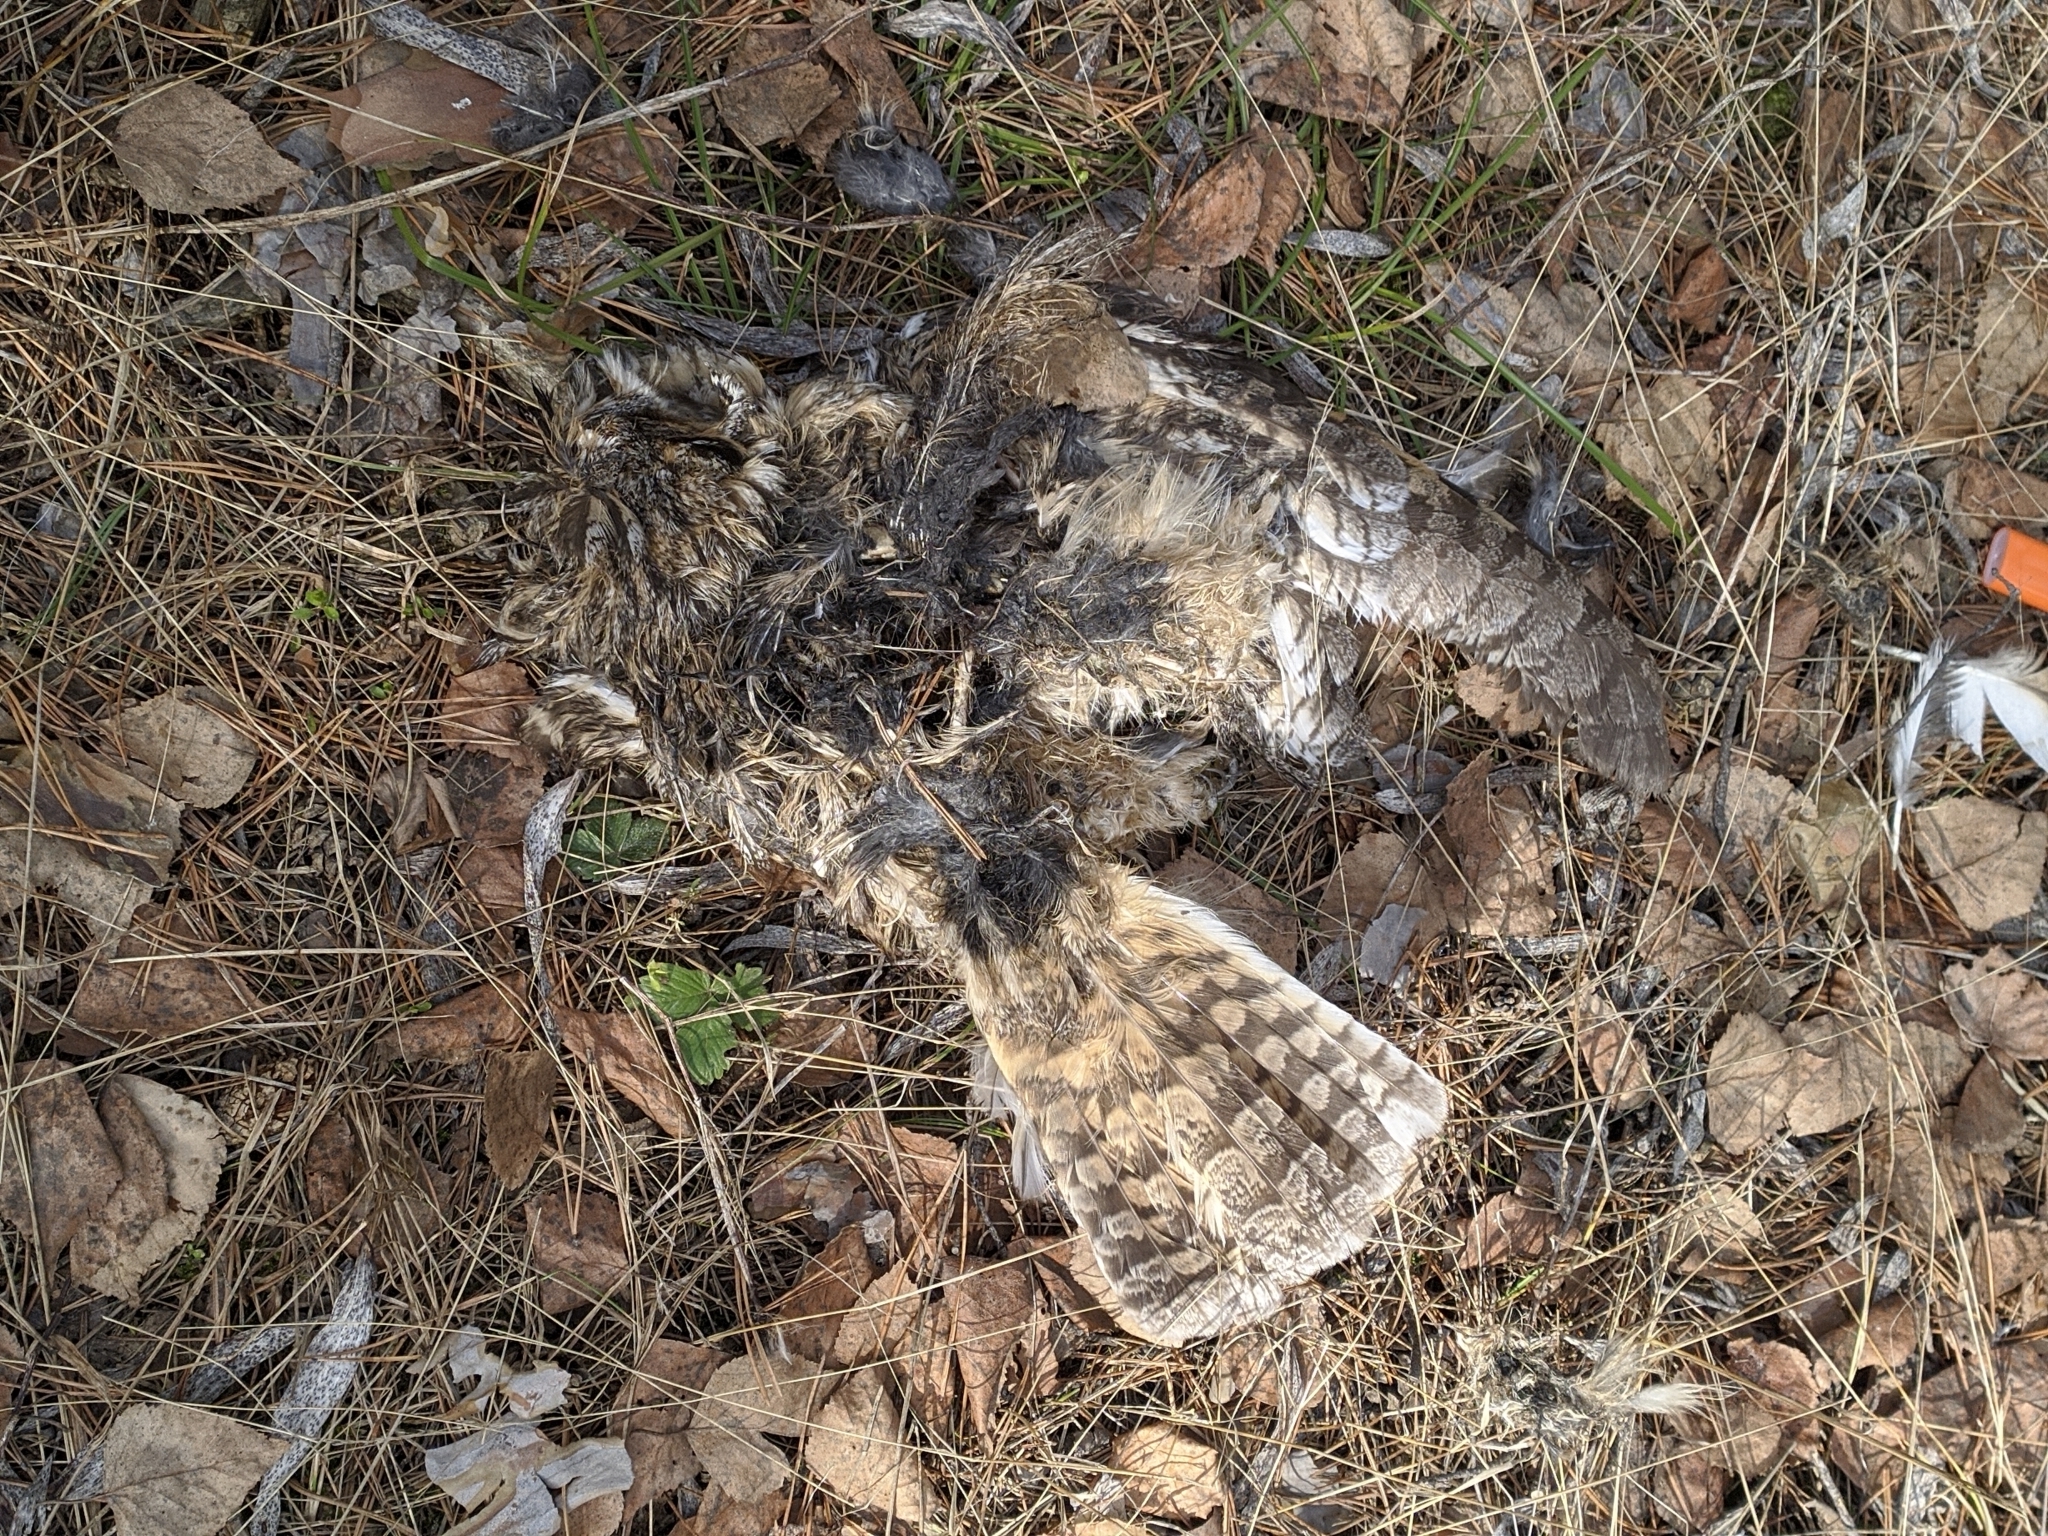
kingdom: Animalia
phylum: Chordata
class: Aves
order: Strigiformes
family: Strigidae
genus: Asio
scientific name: Asio otus
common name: Long-eared owl
